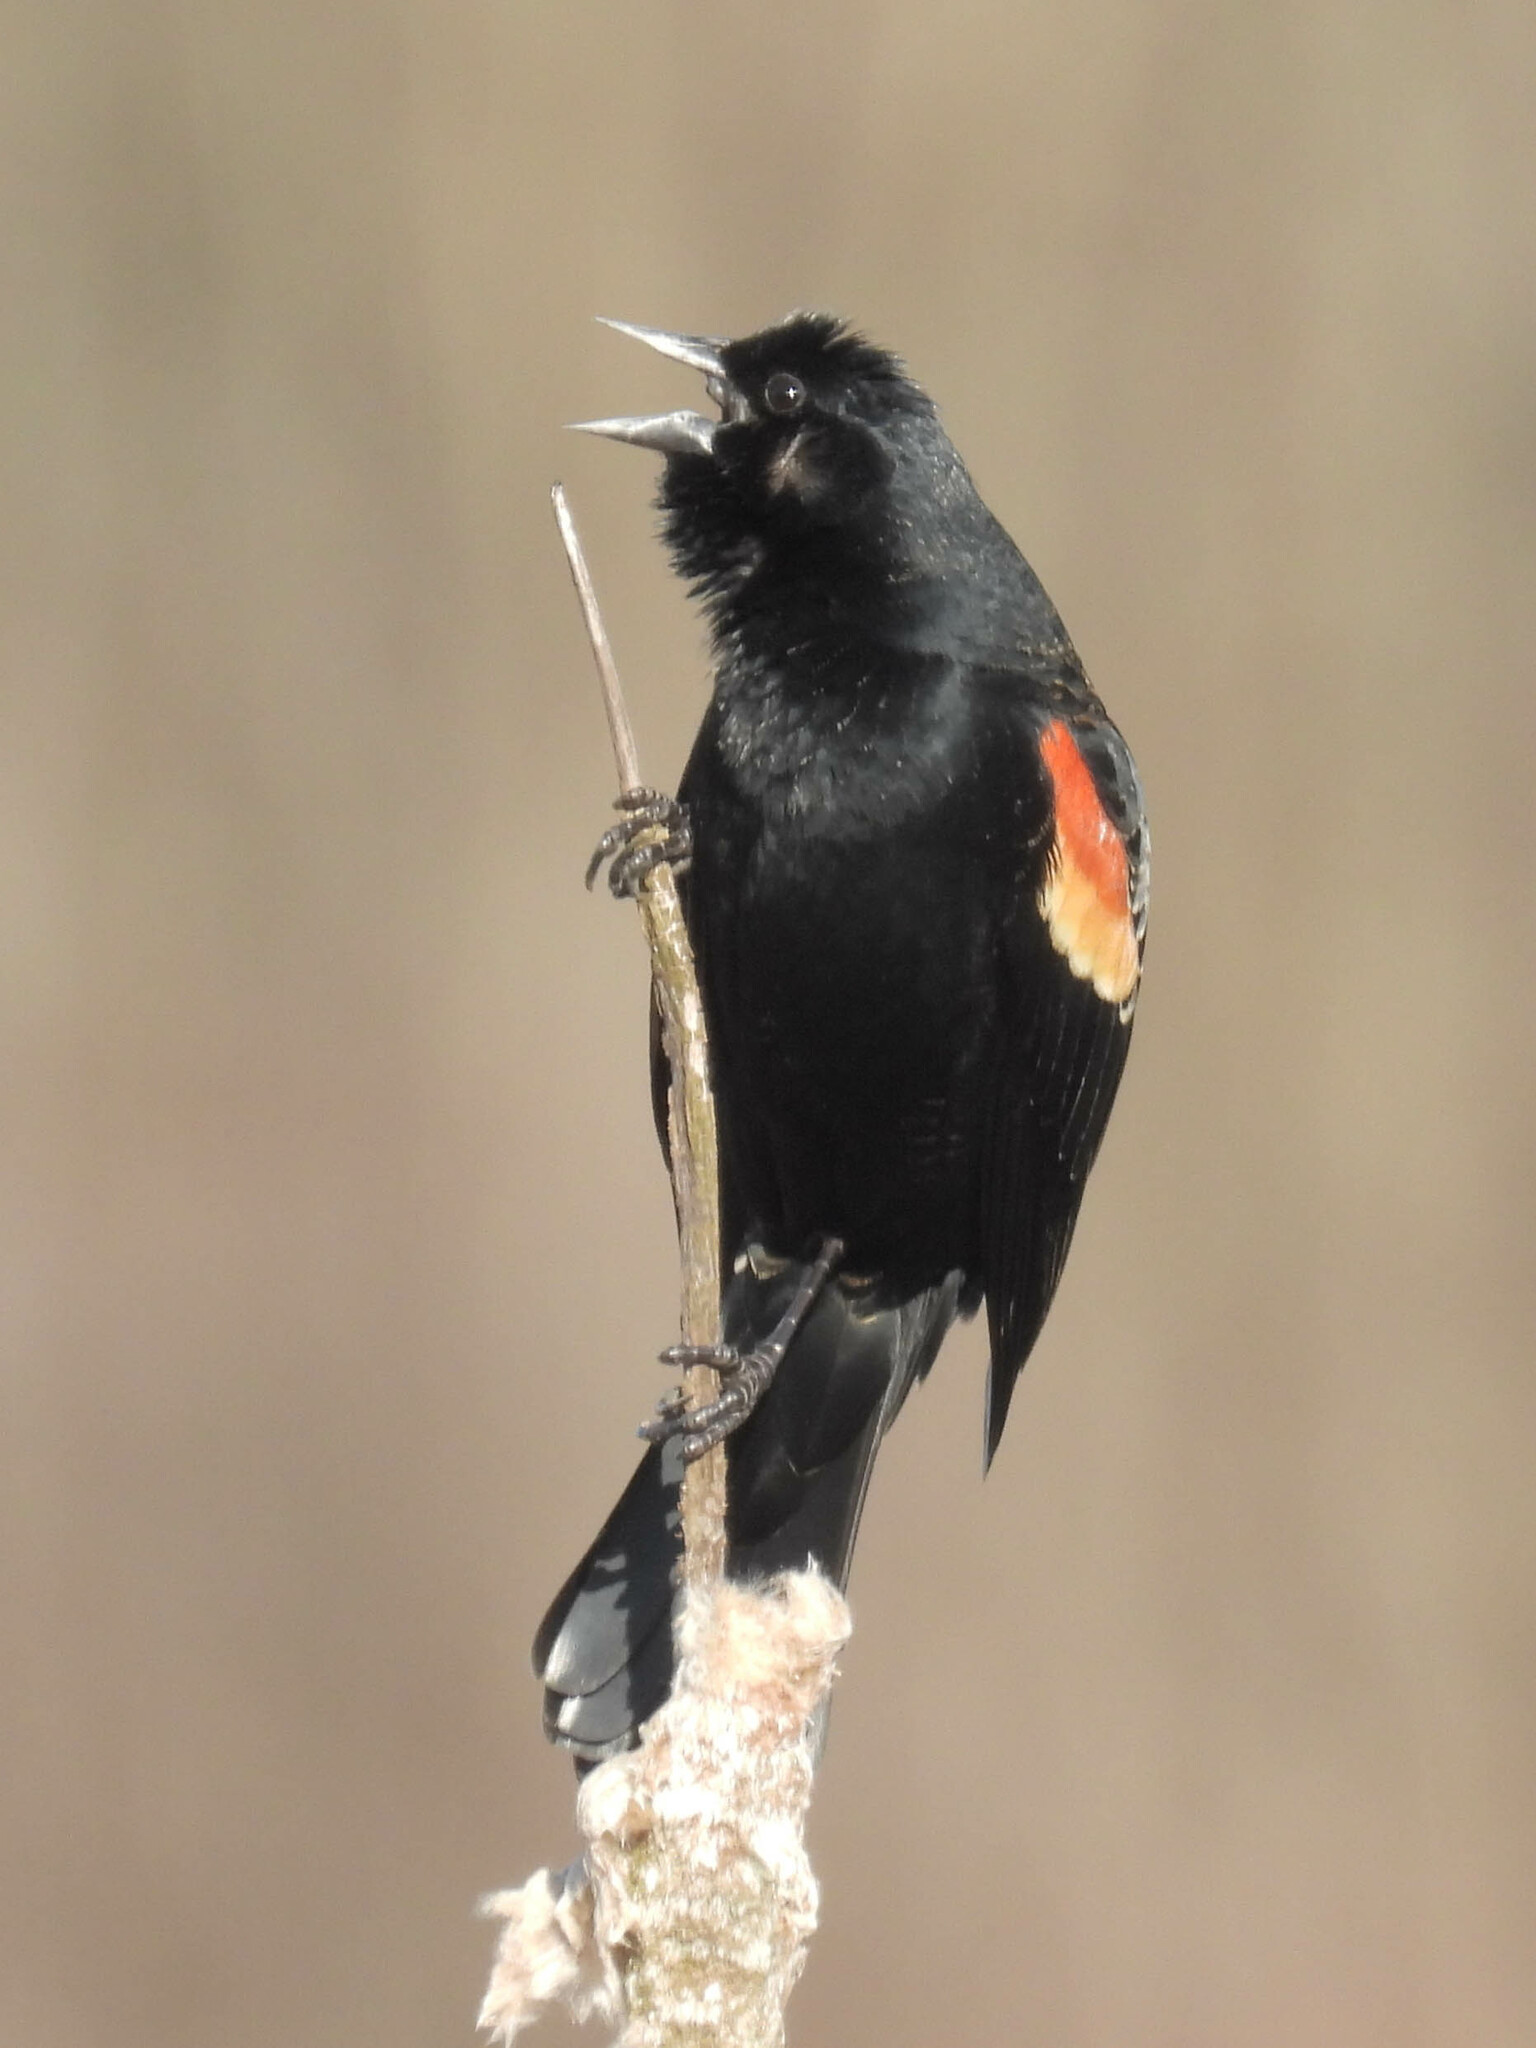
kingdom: Animalia
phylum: Chordata
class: Aves
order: Passeriformes
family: Icteridae
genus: Agelaius
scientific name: Agelaius phoeniceus
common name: Red-winged blackbird
